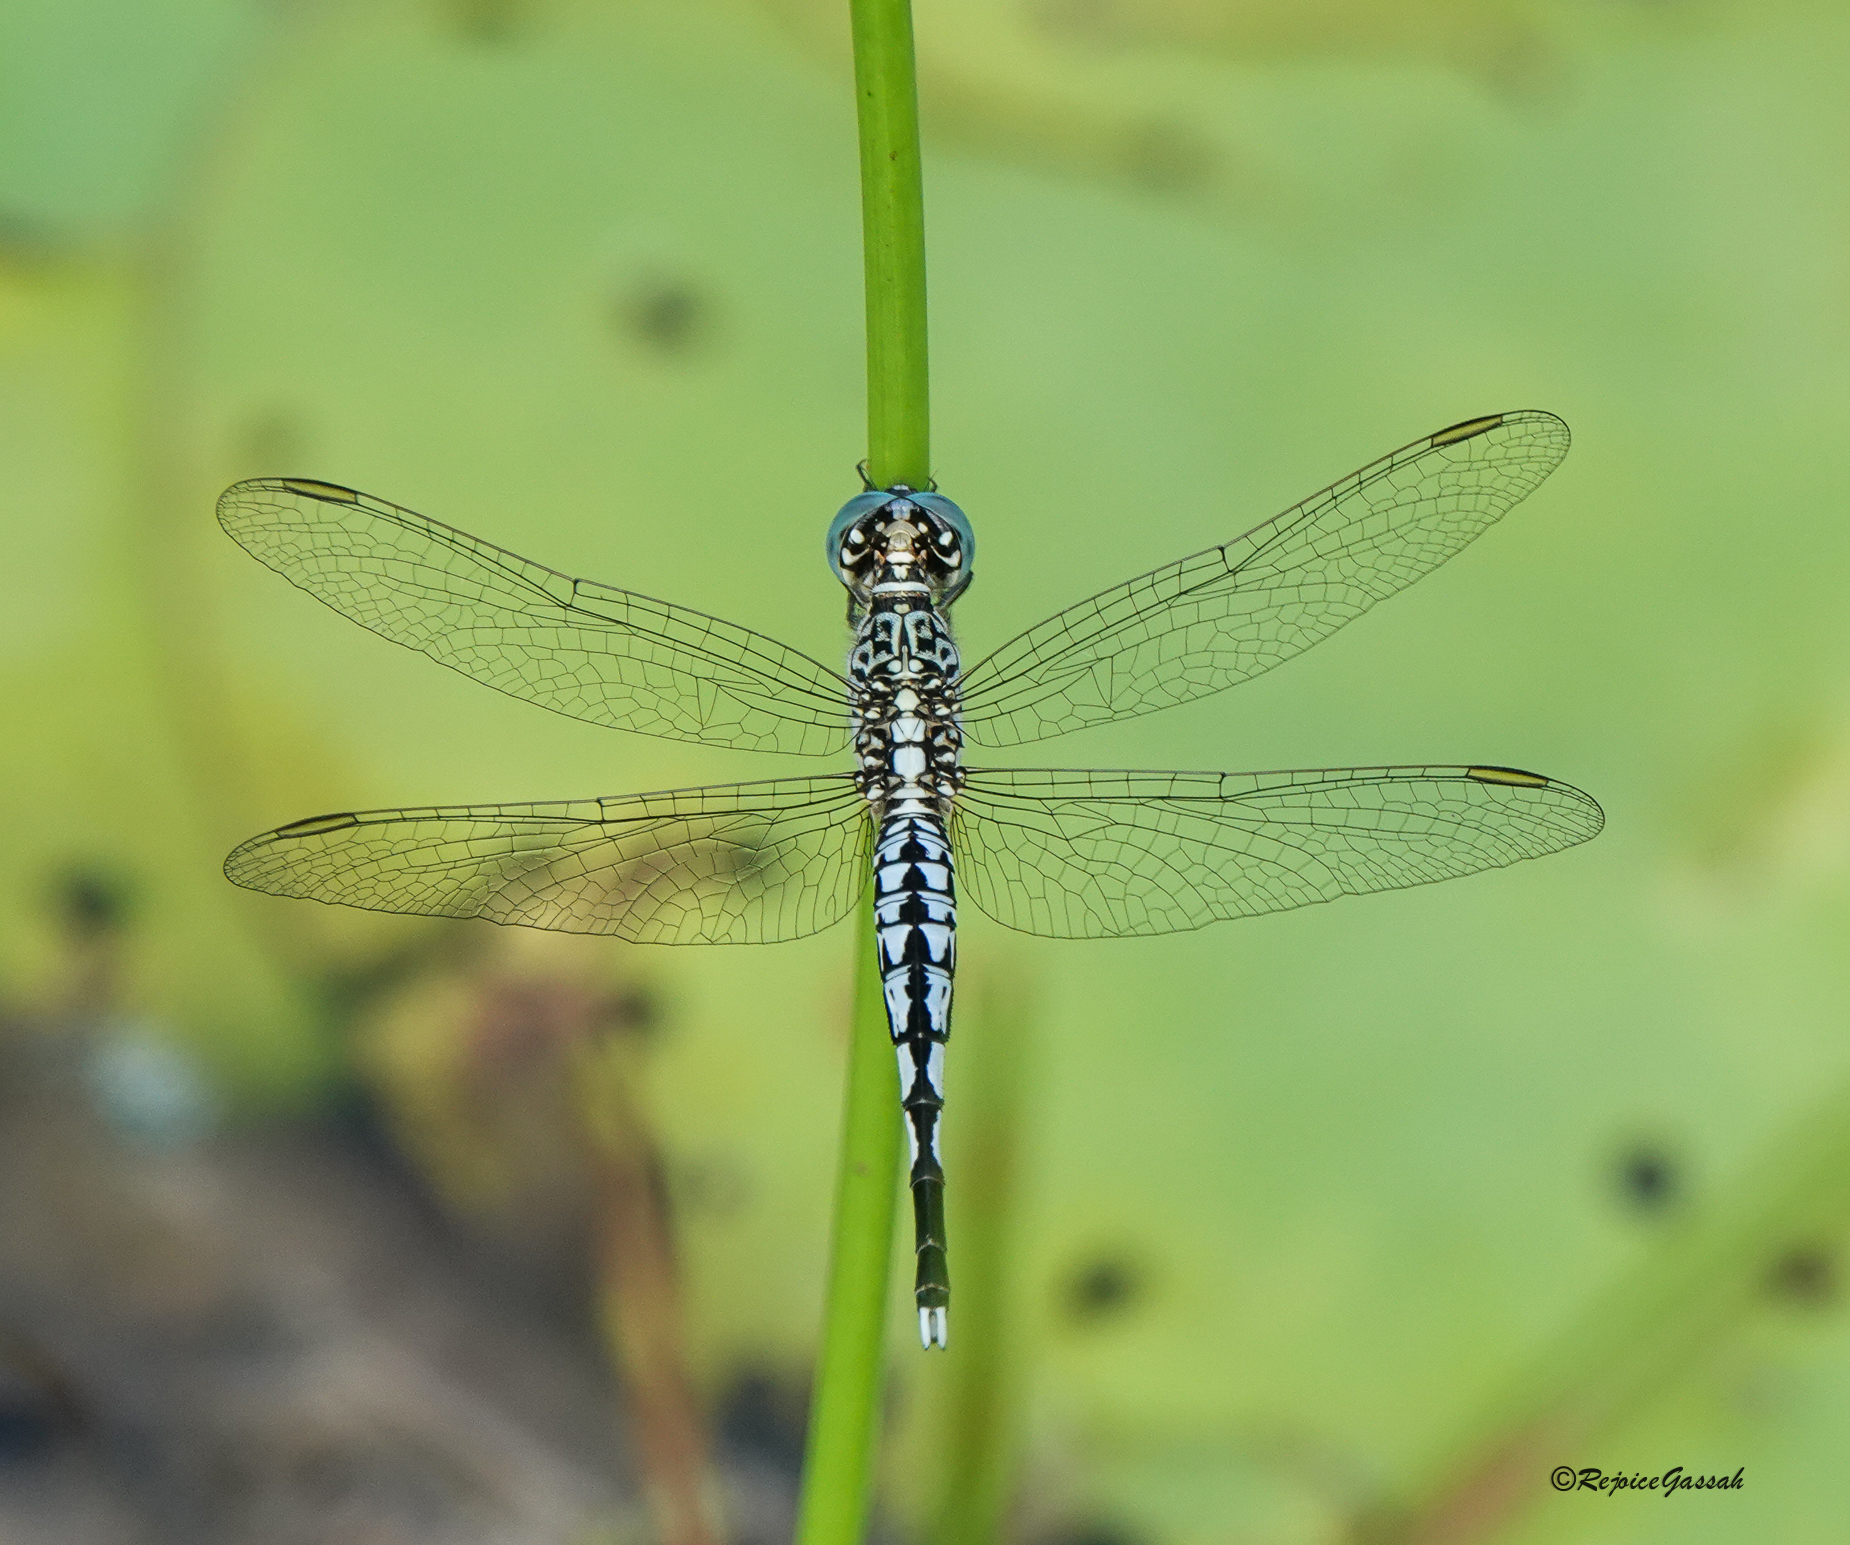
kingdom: Animalia
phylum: Arthropoda
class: Insecta
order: Odonata
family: Libellulidae
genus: Acisoma
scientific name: Acisoma panorpoides
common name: Asian pintail
